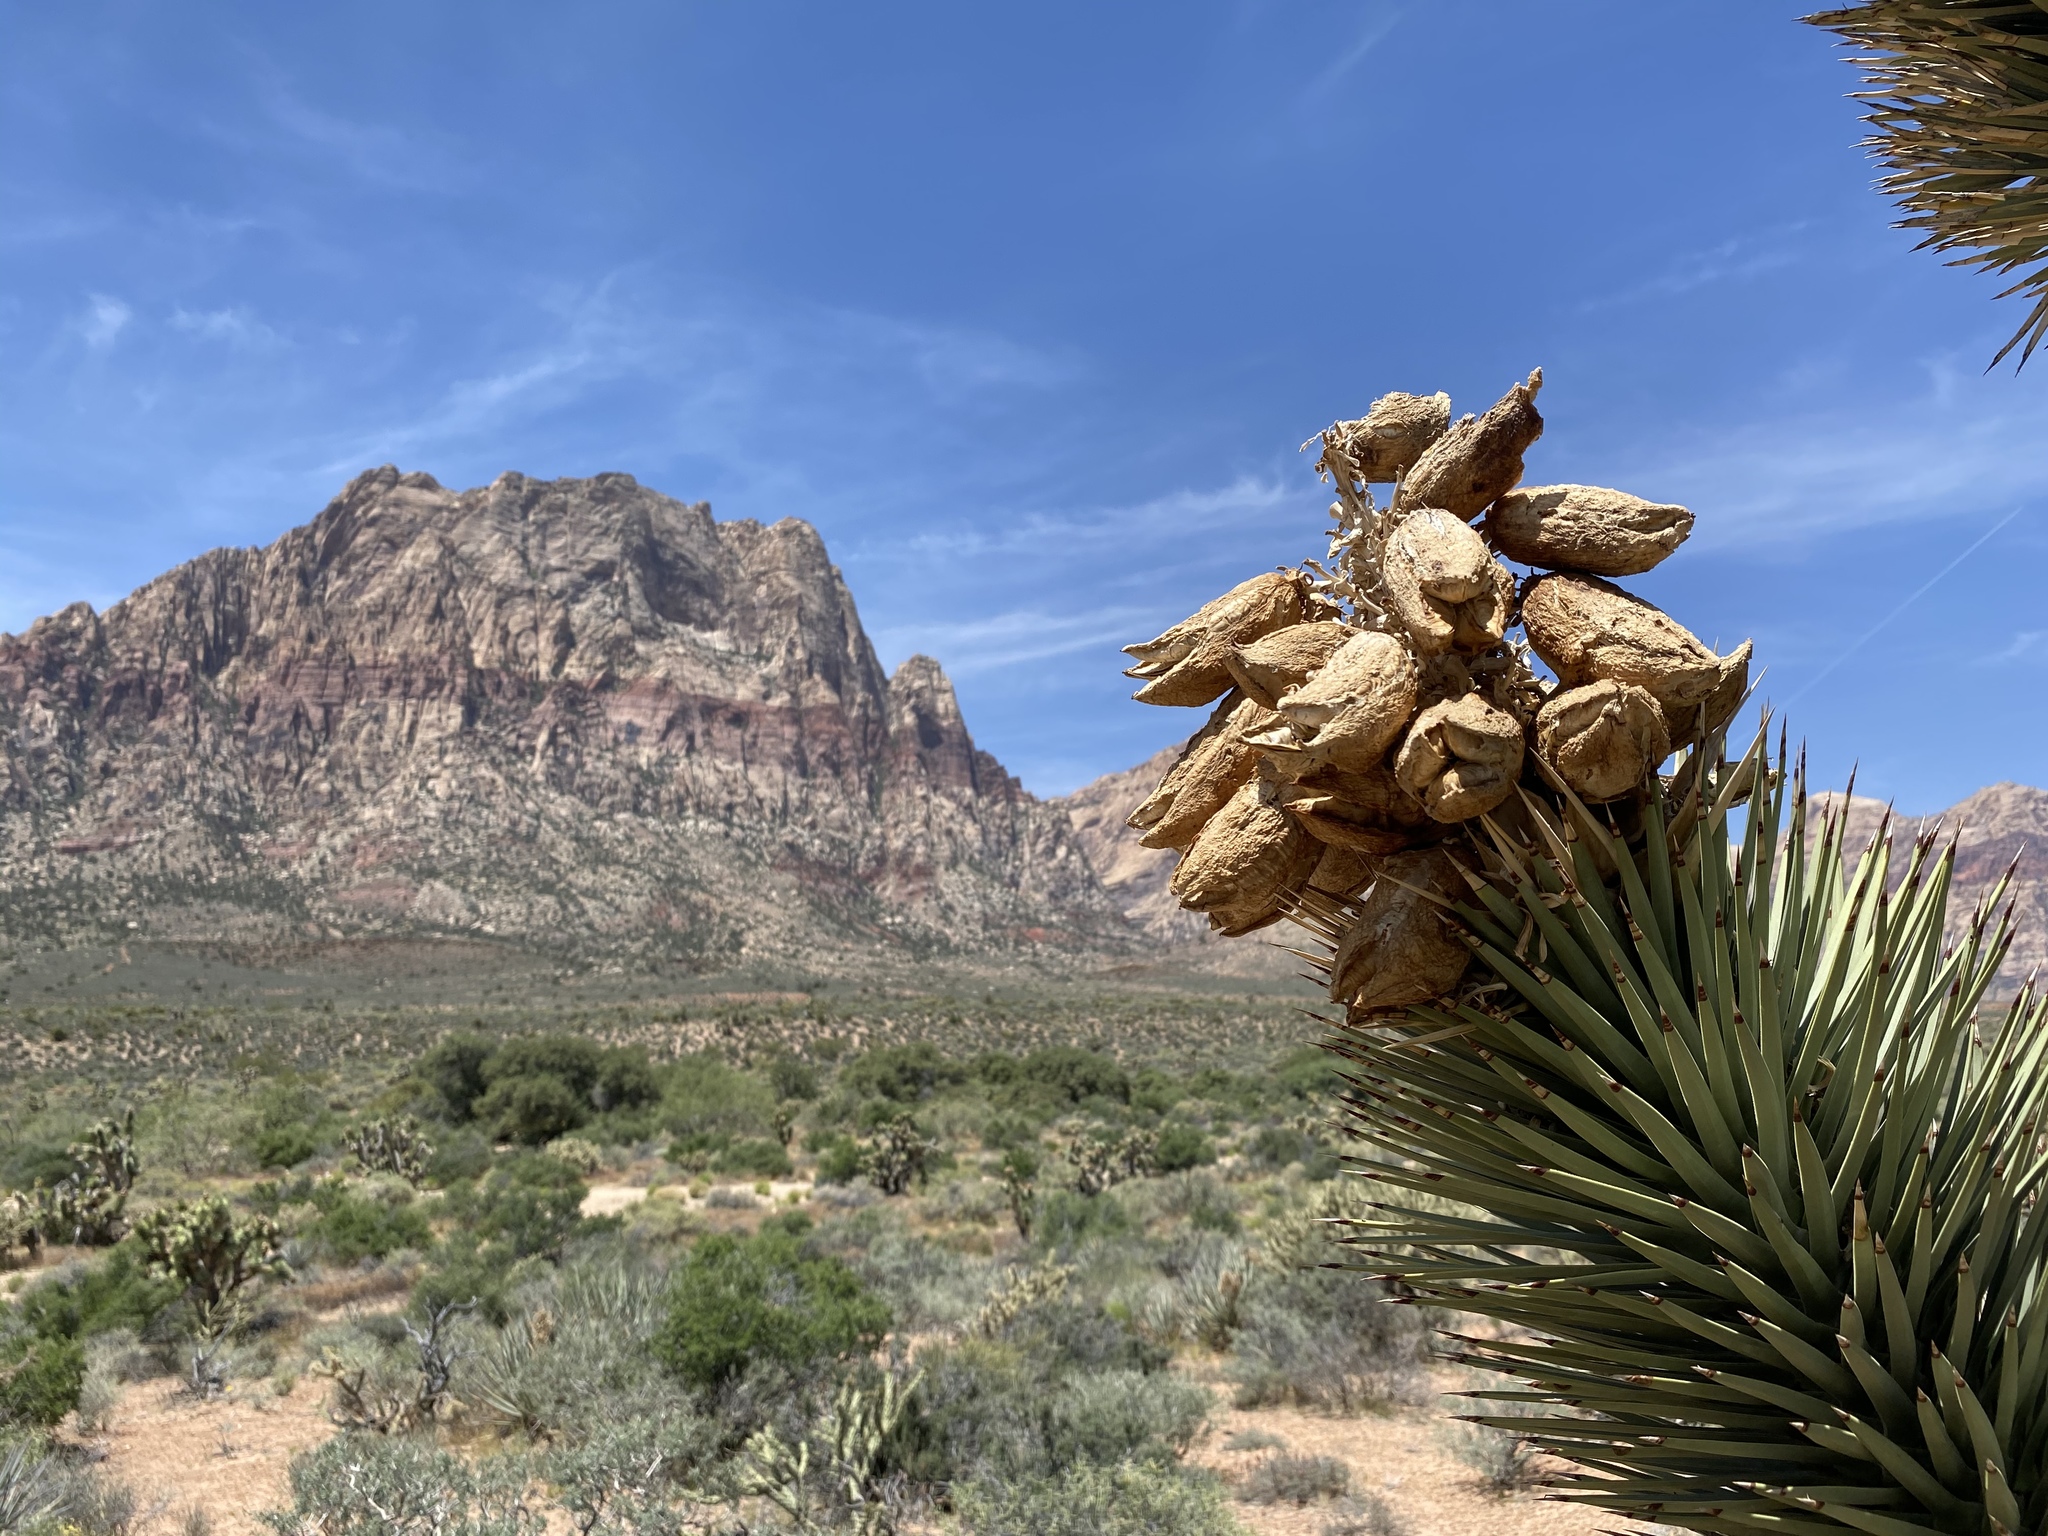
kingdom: Plantae
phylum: Tracheophyta
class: Liliopsida
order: Asparagales
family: Asparagaceae
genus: Yucca
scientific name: Yucca brevifolia
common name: Joshua tree
